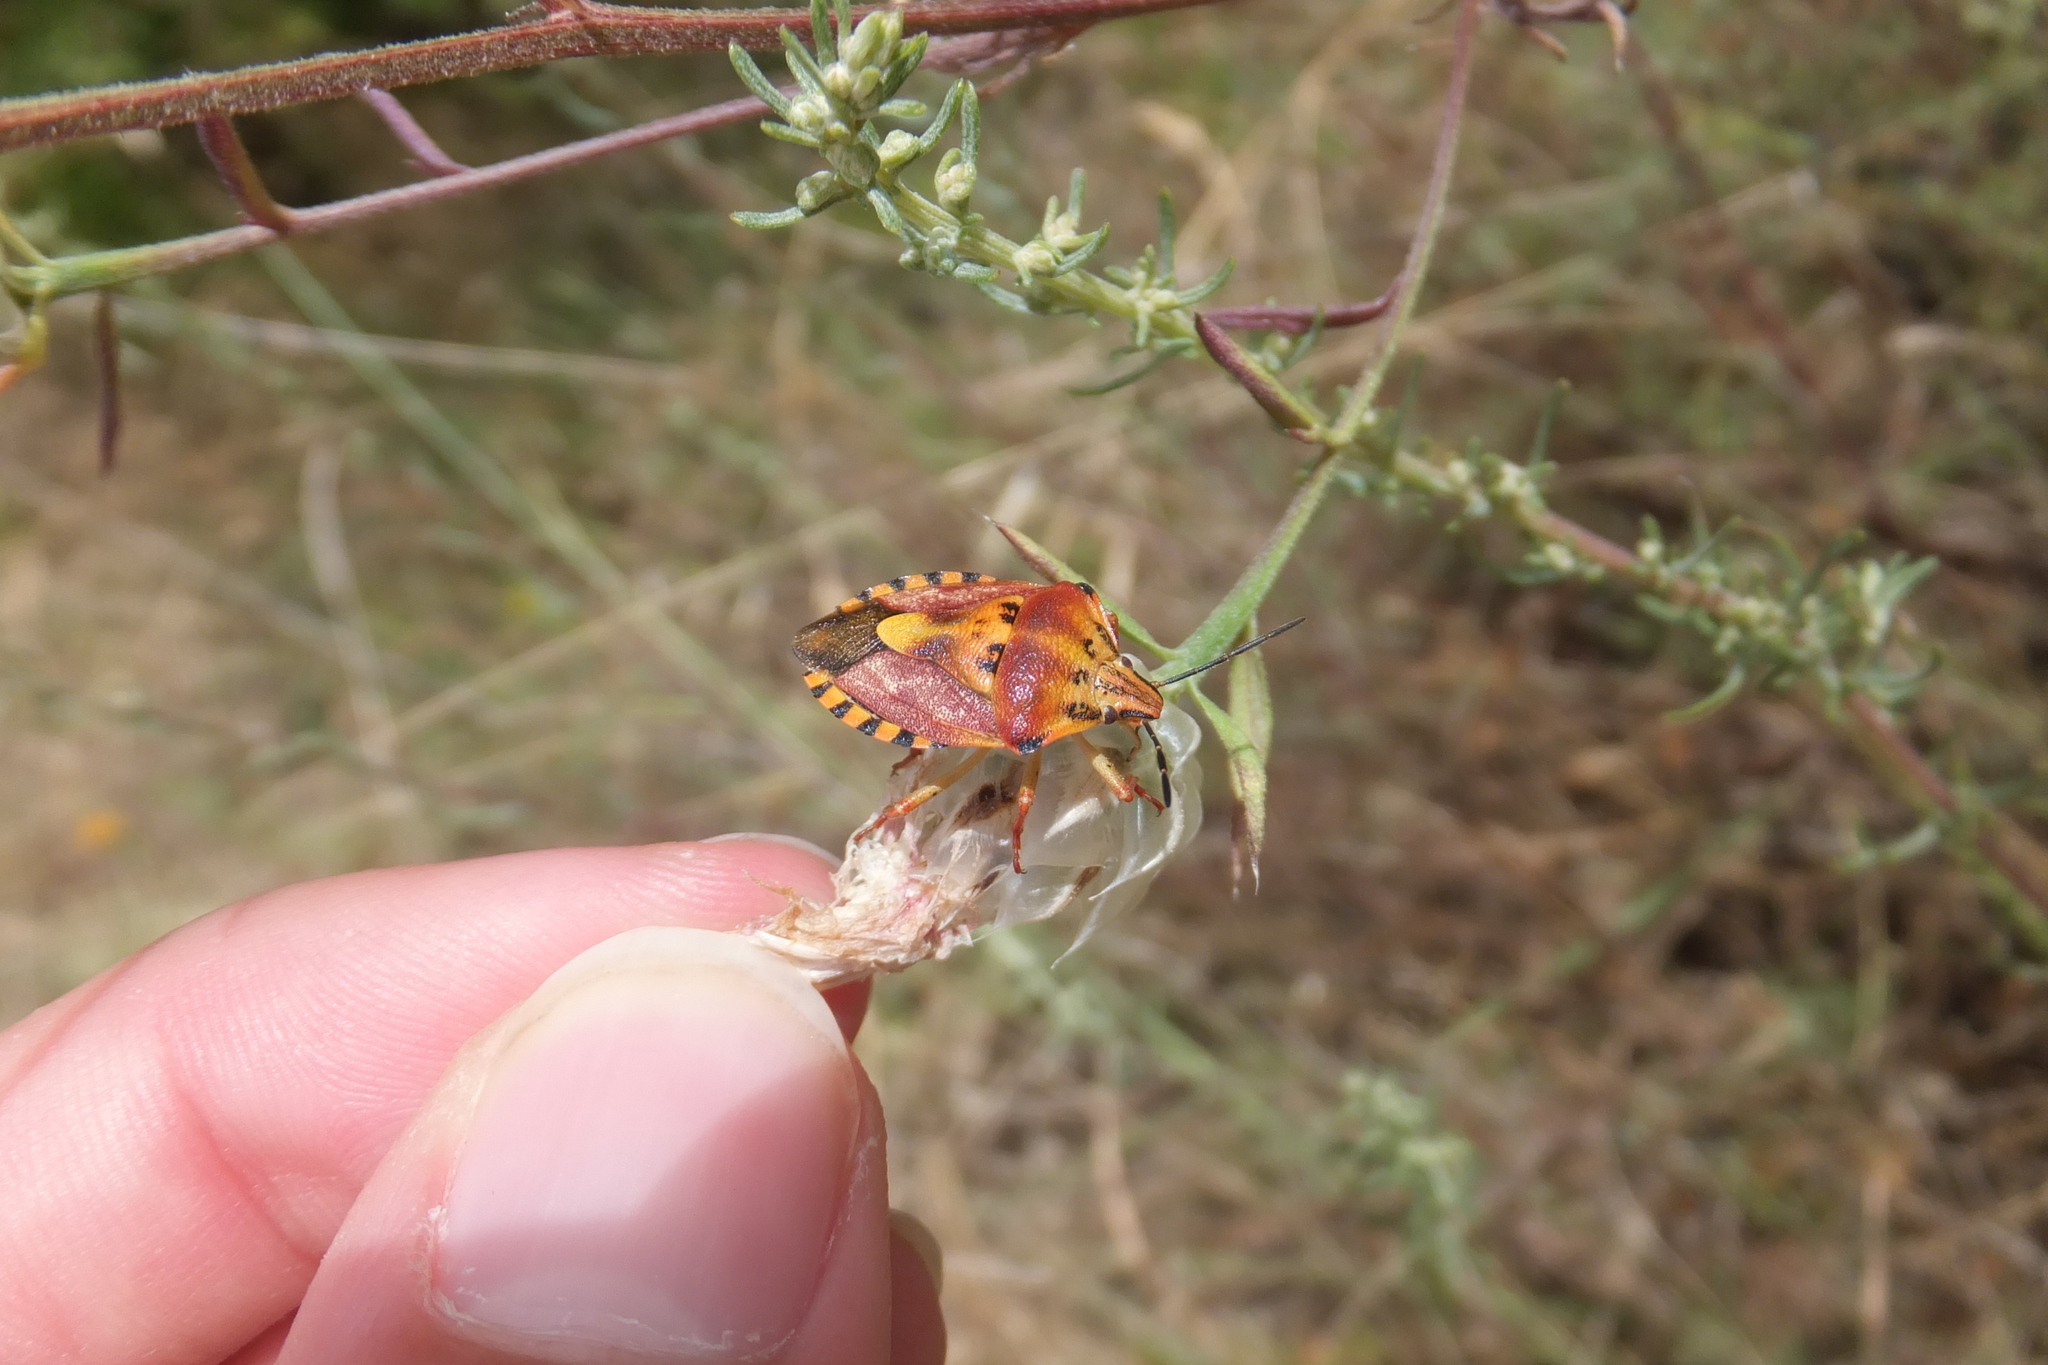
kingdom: Animalia
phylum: Arthropoda
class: Insecta
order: Hemiptera
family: Pentatomidae
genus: Carpocoris
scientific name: Carpocoris purpureipennis
